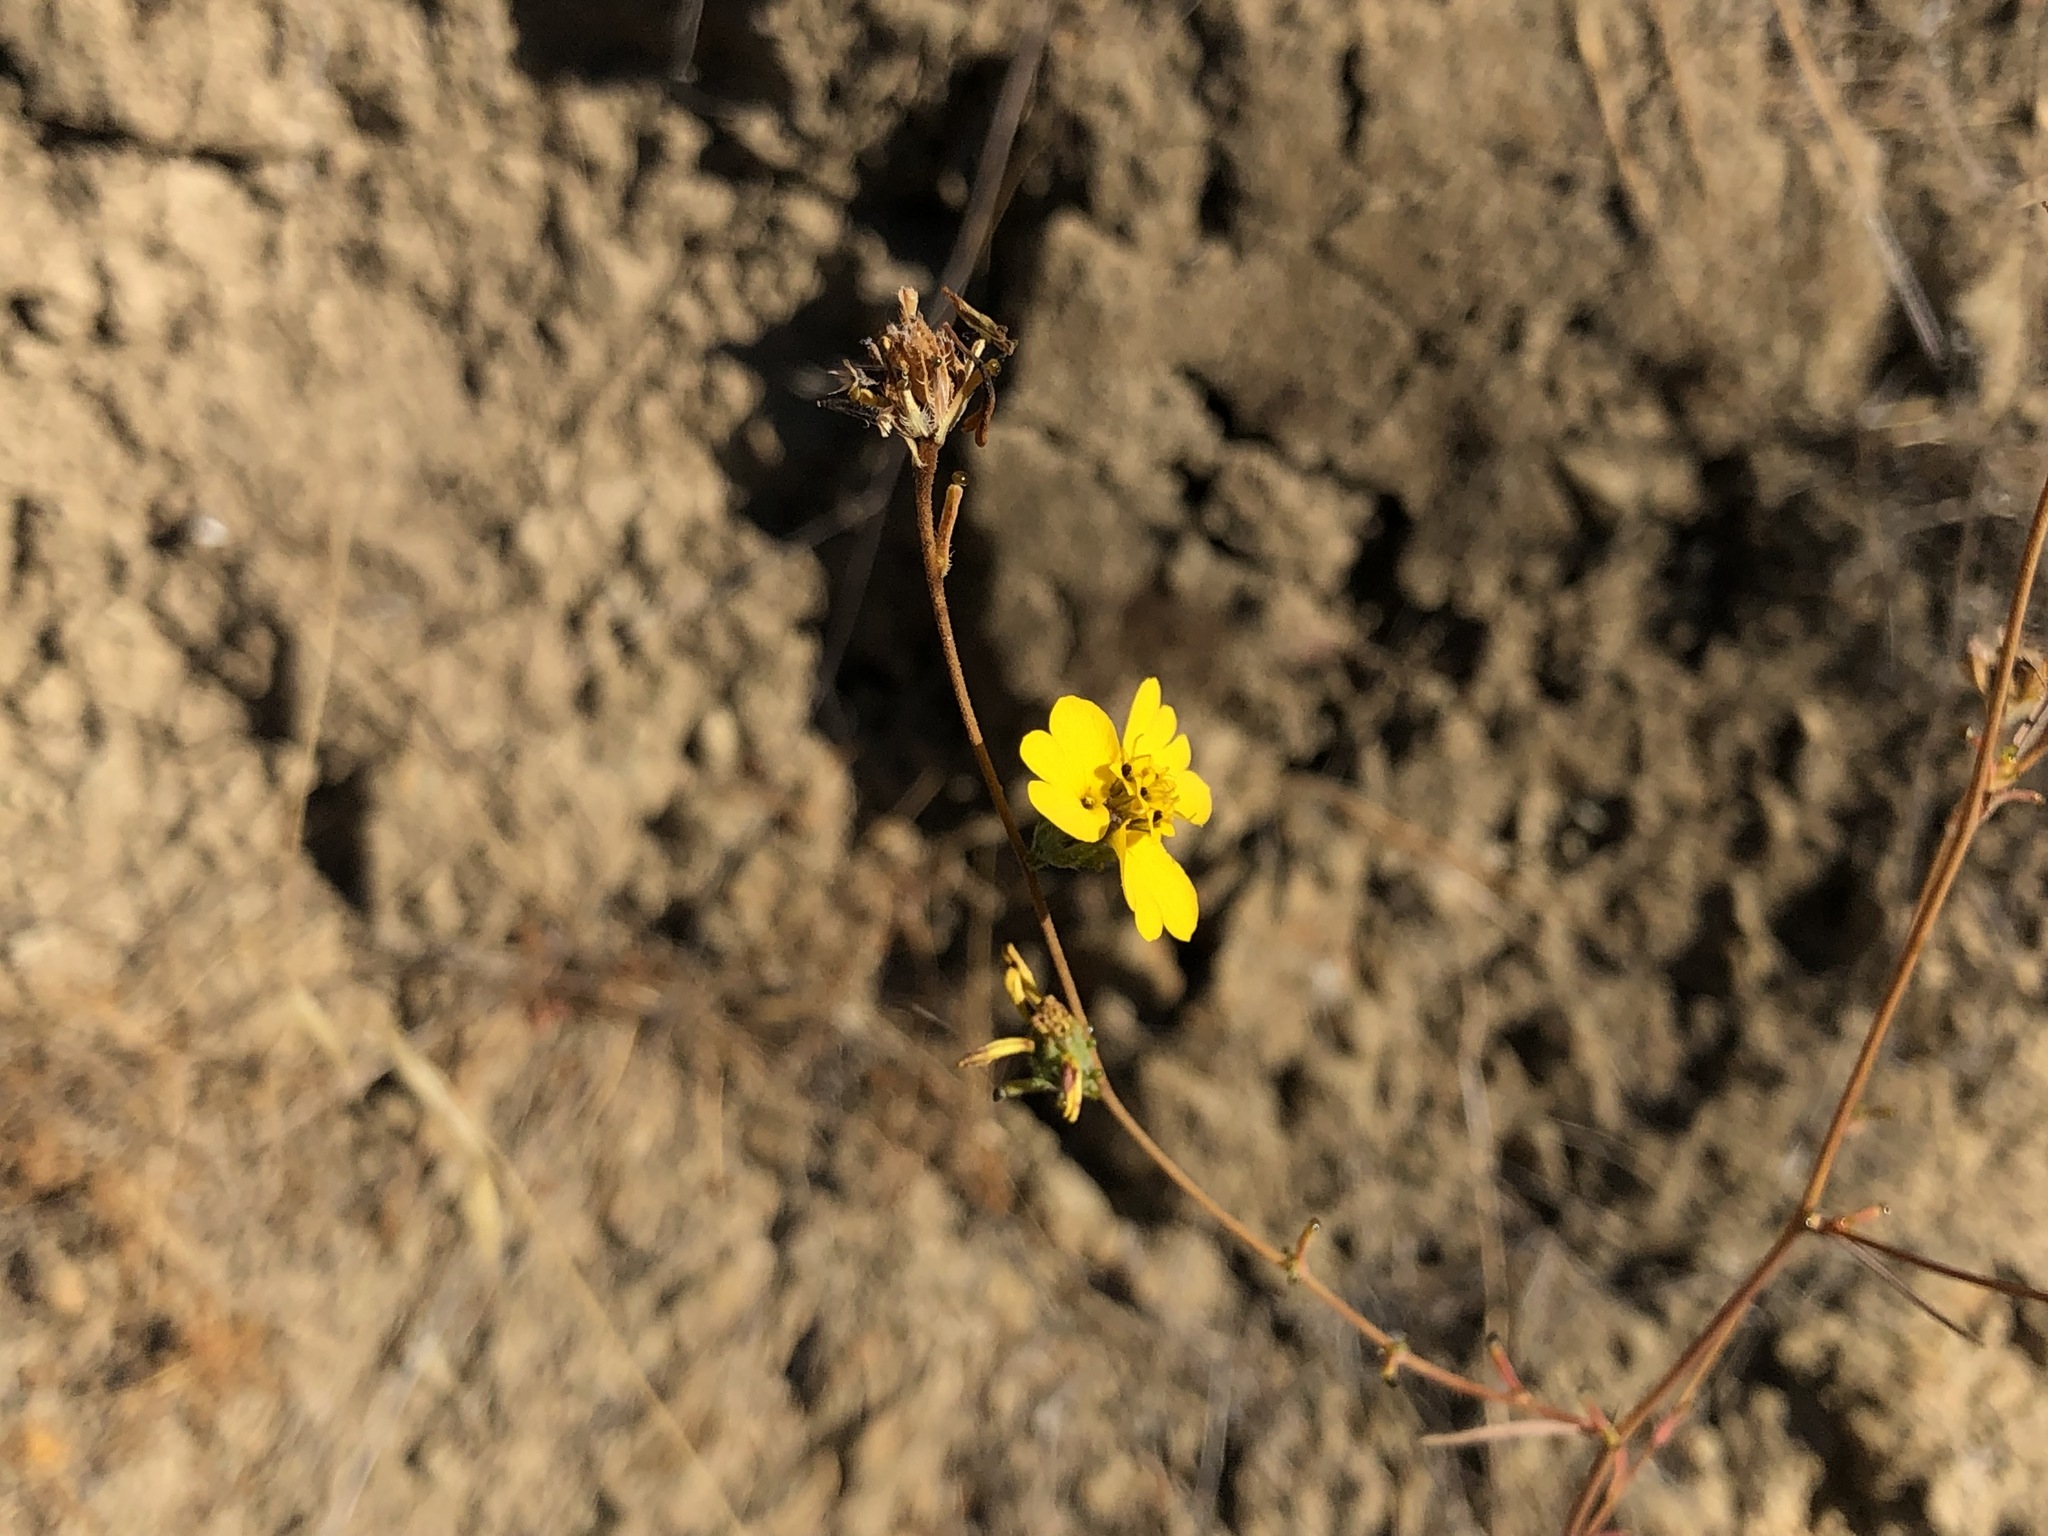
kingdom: Plantae
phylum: Tracheophyta
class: Magnoliopsida
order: Asterales
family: Asteraceae
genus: Calycadenia
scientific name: Calycadenia truncata
